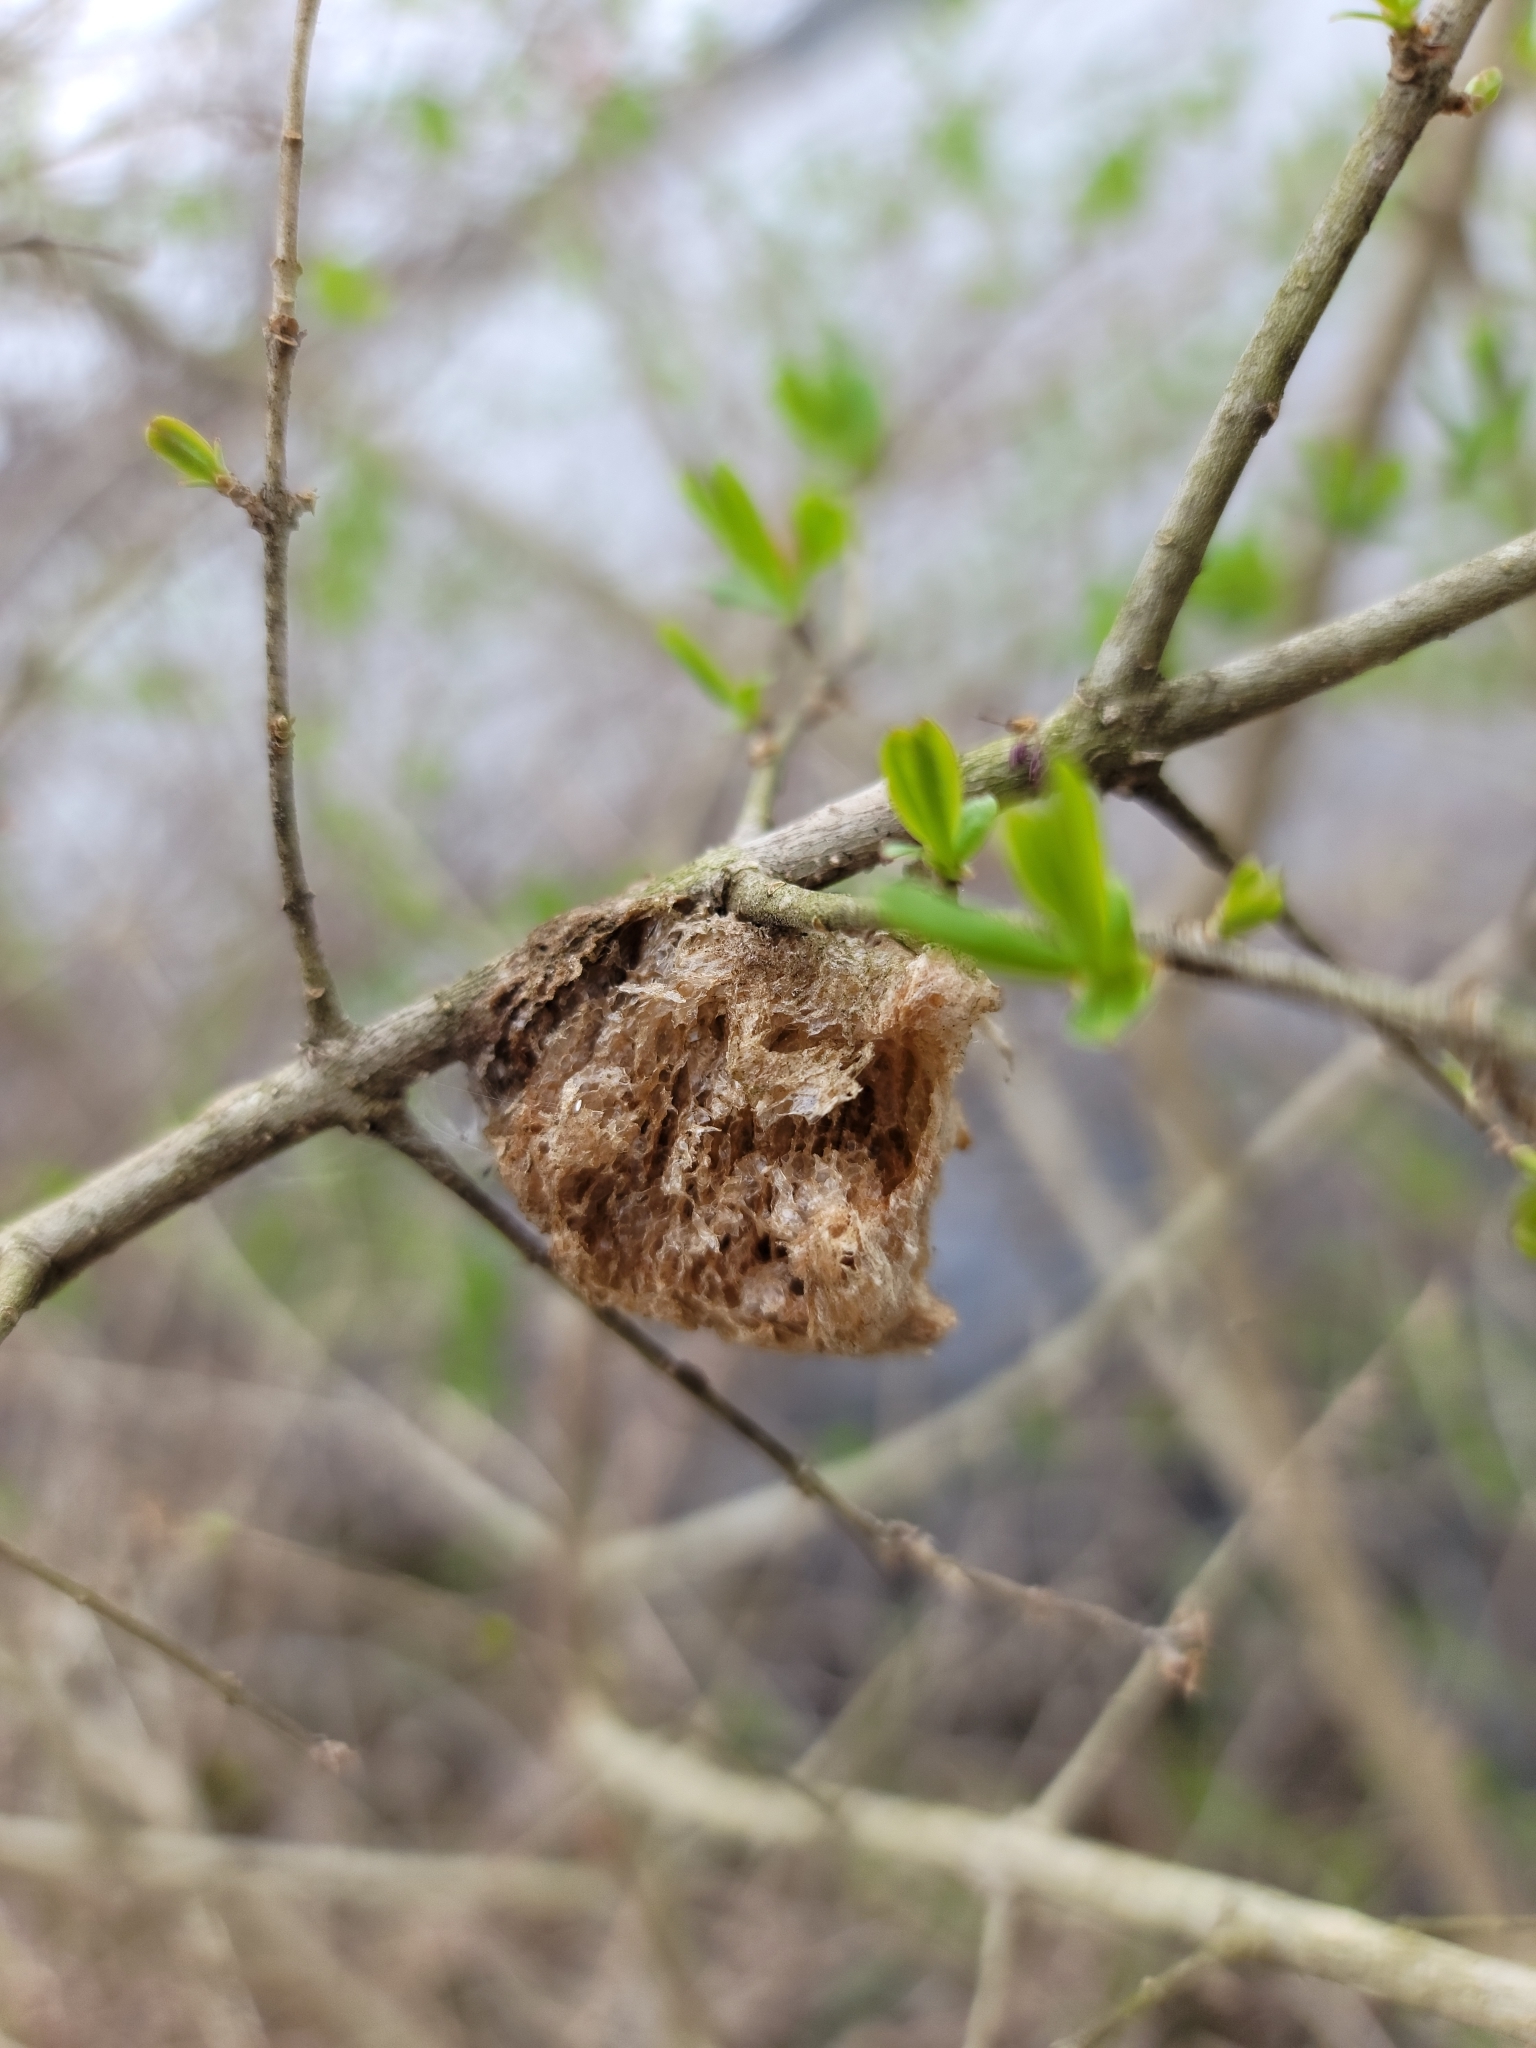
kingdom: Animalia
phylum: Arthropoda
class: Insecta
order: Mantodea
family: Mantidae
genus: Tenodera
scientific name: Tenodera sinensis
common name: Chinese mantis
